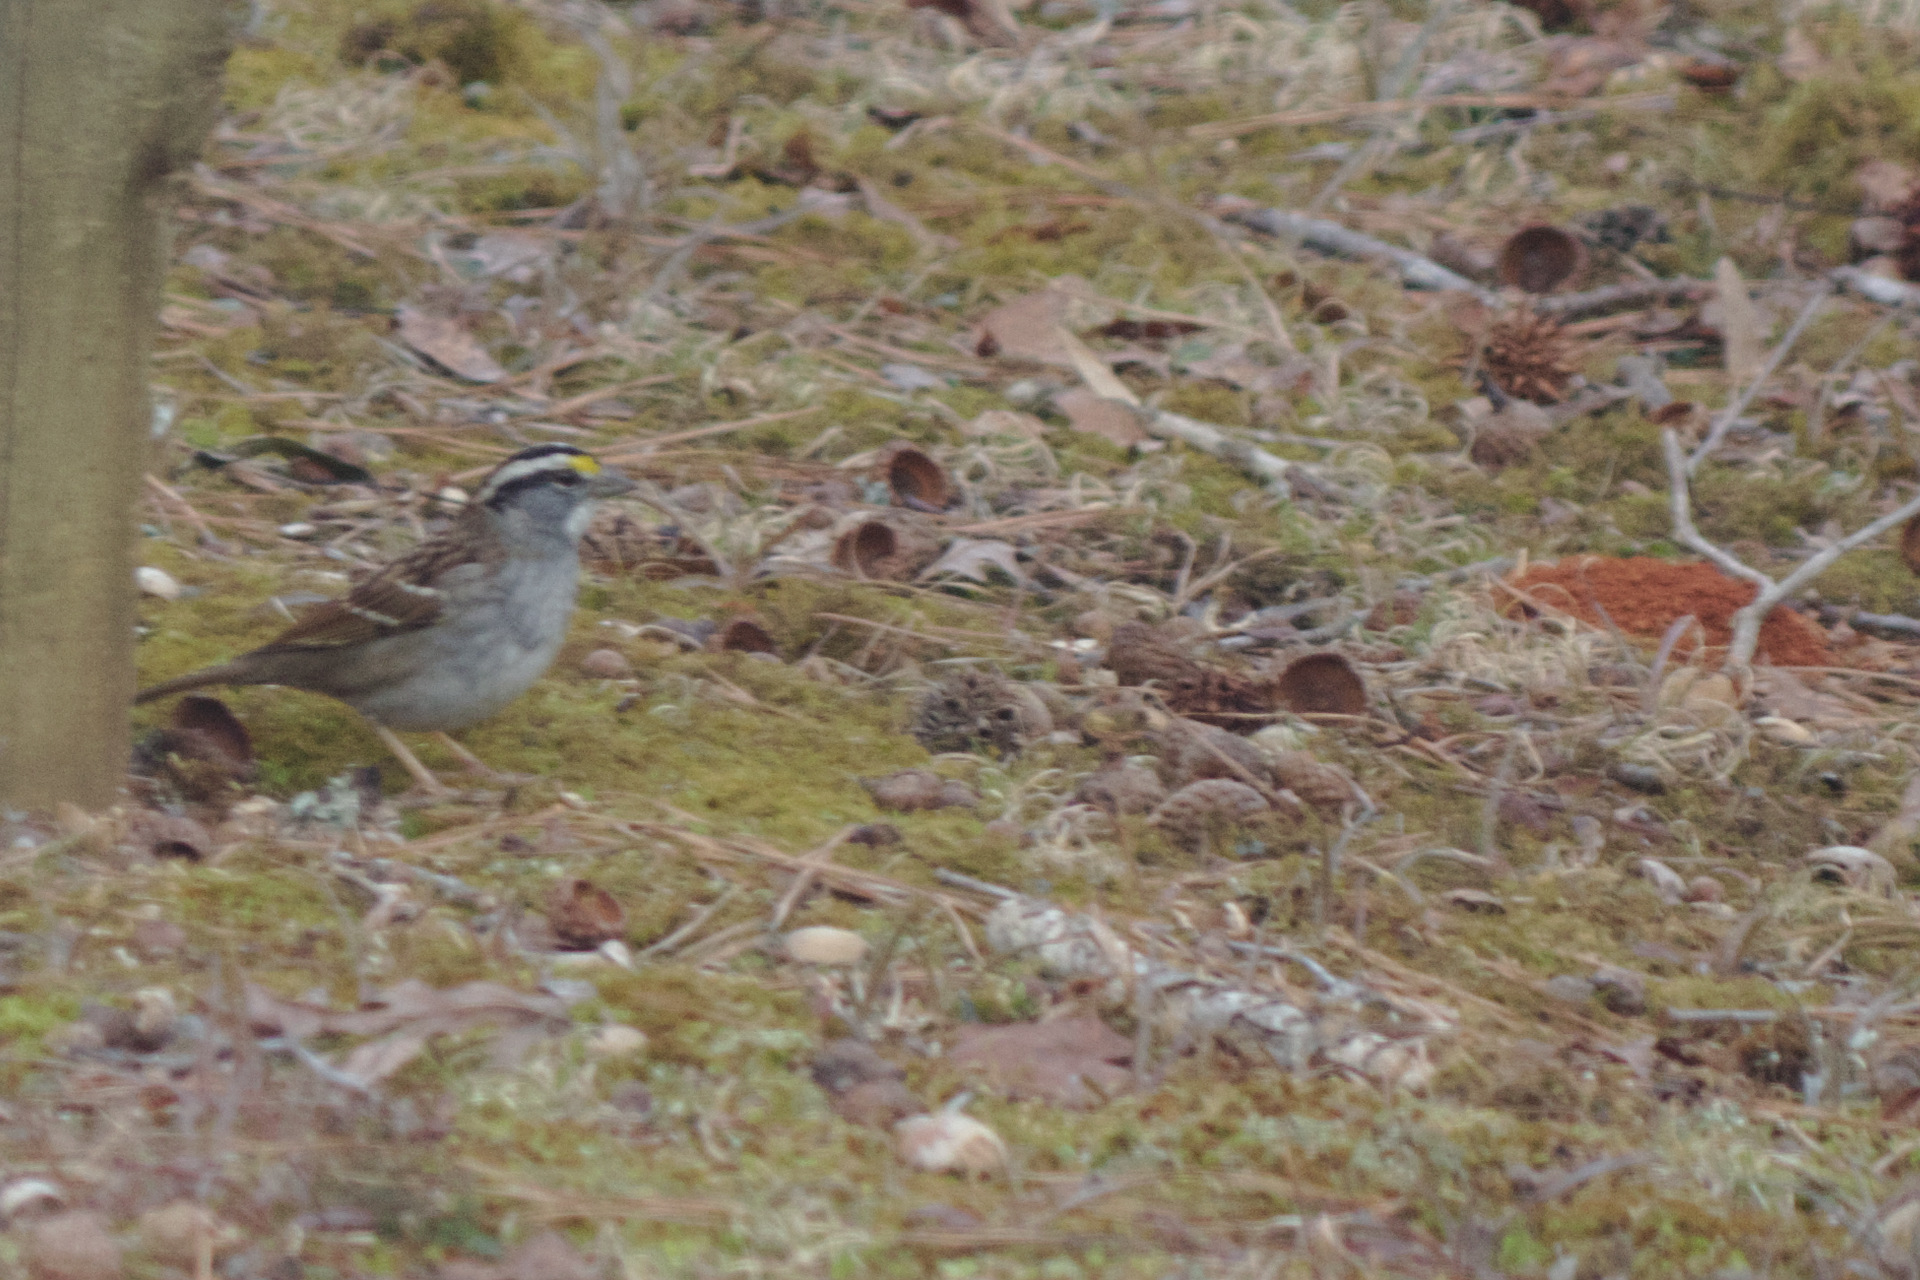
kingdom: Animalia
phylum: Chordata
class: Aves
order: Passeriformes
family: Passerellidae
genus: Zonotrichia
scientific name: Zonotrichia albicollis
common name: White-throated sparrow
